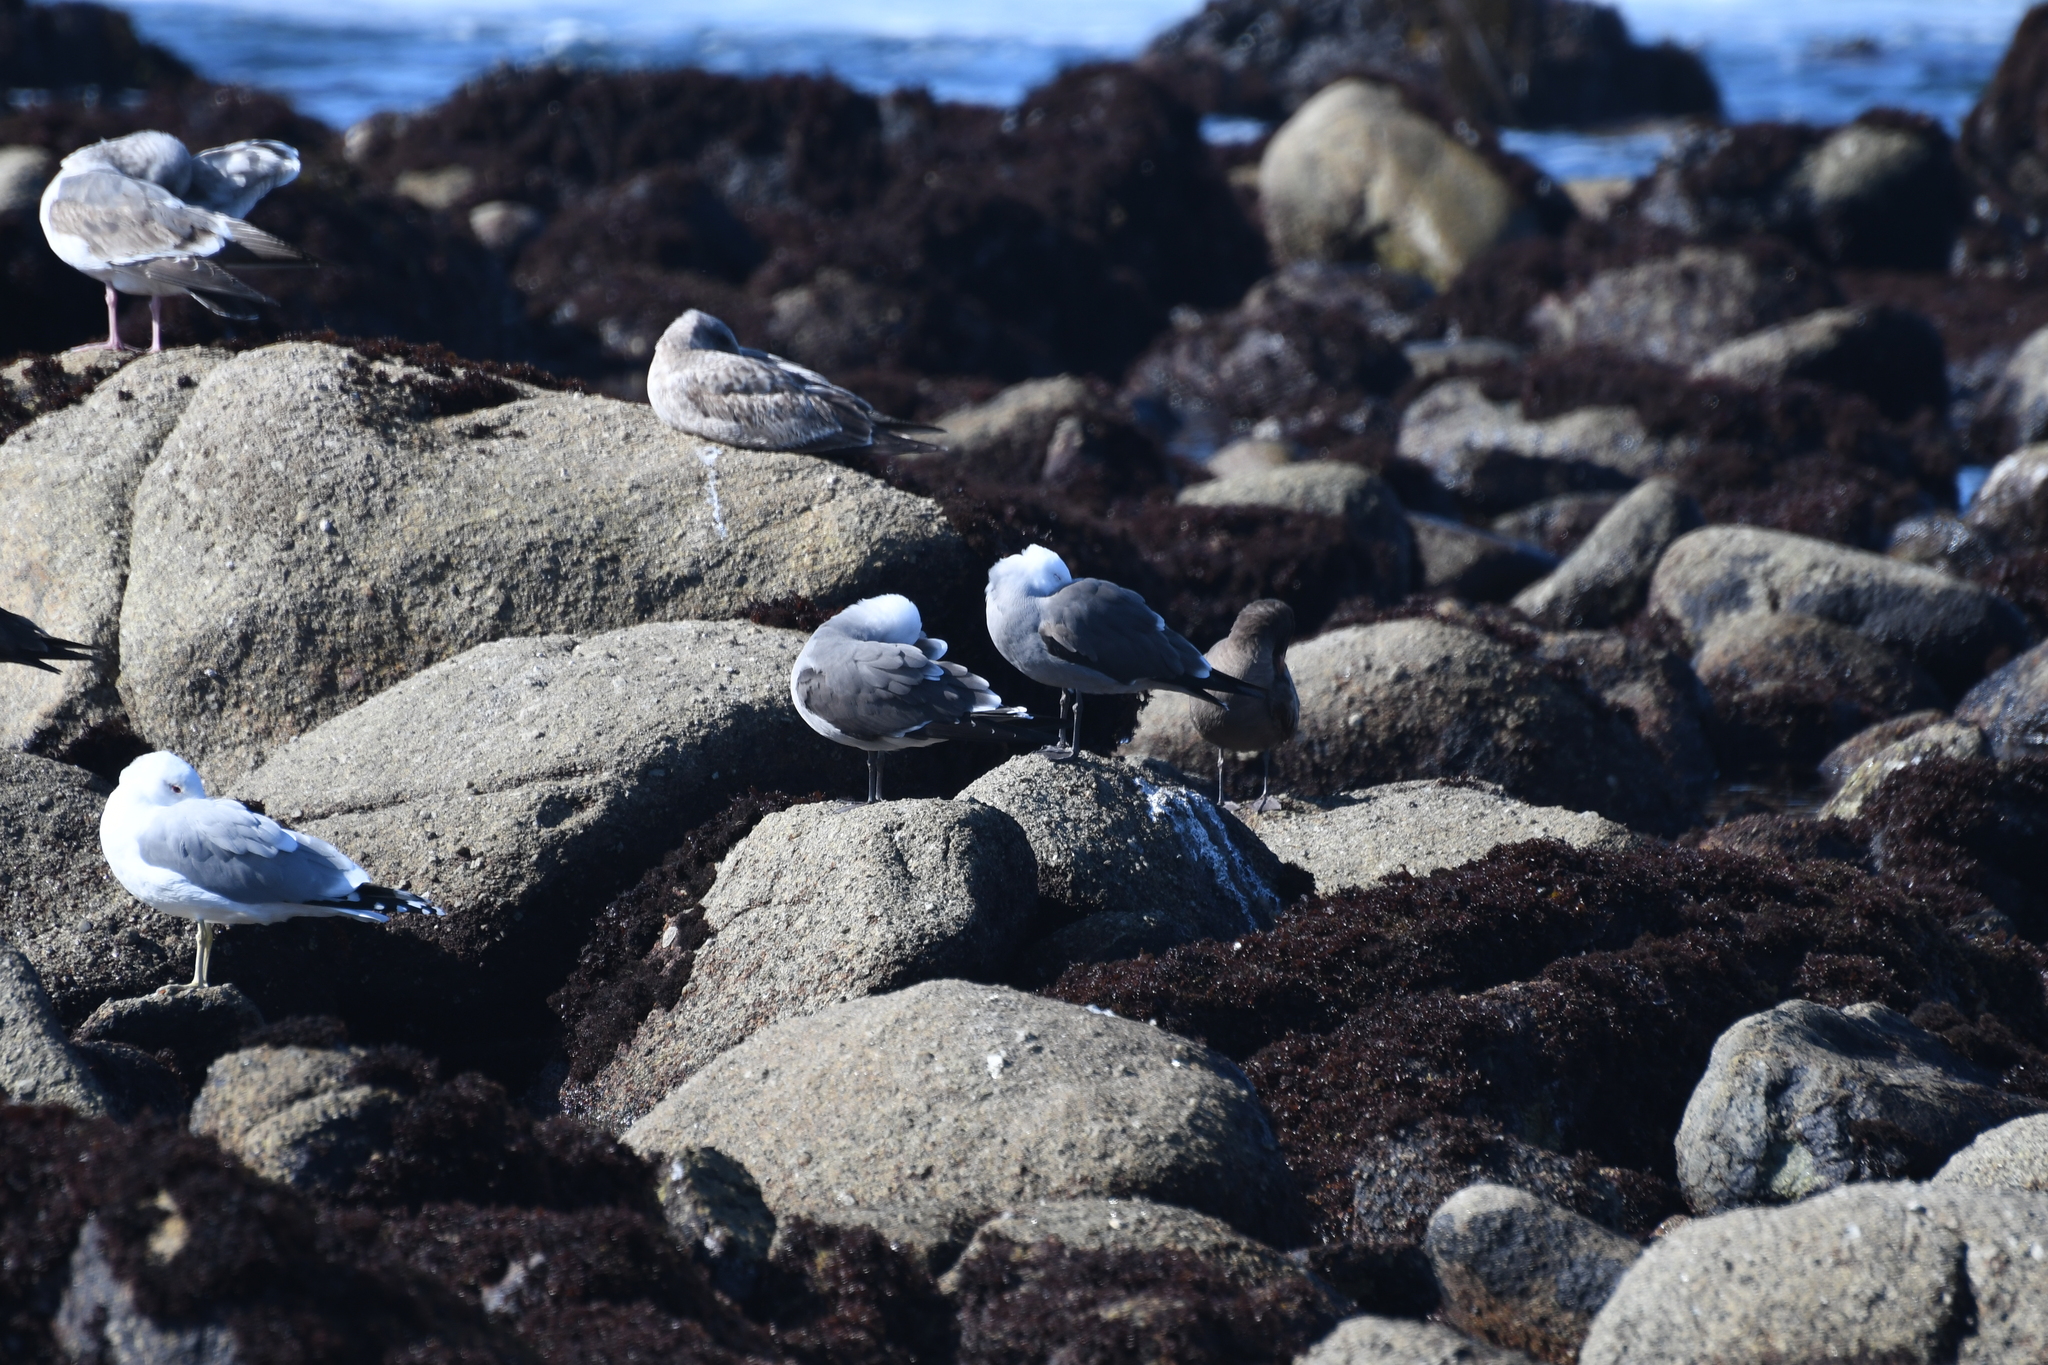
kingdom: Animalia
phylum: Chordata
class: Aves
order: Charadriiformes
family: Laridae
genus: Larus
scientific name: Larus heermanni
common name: Heermann's gull
